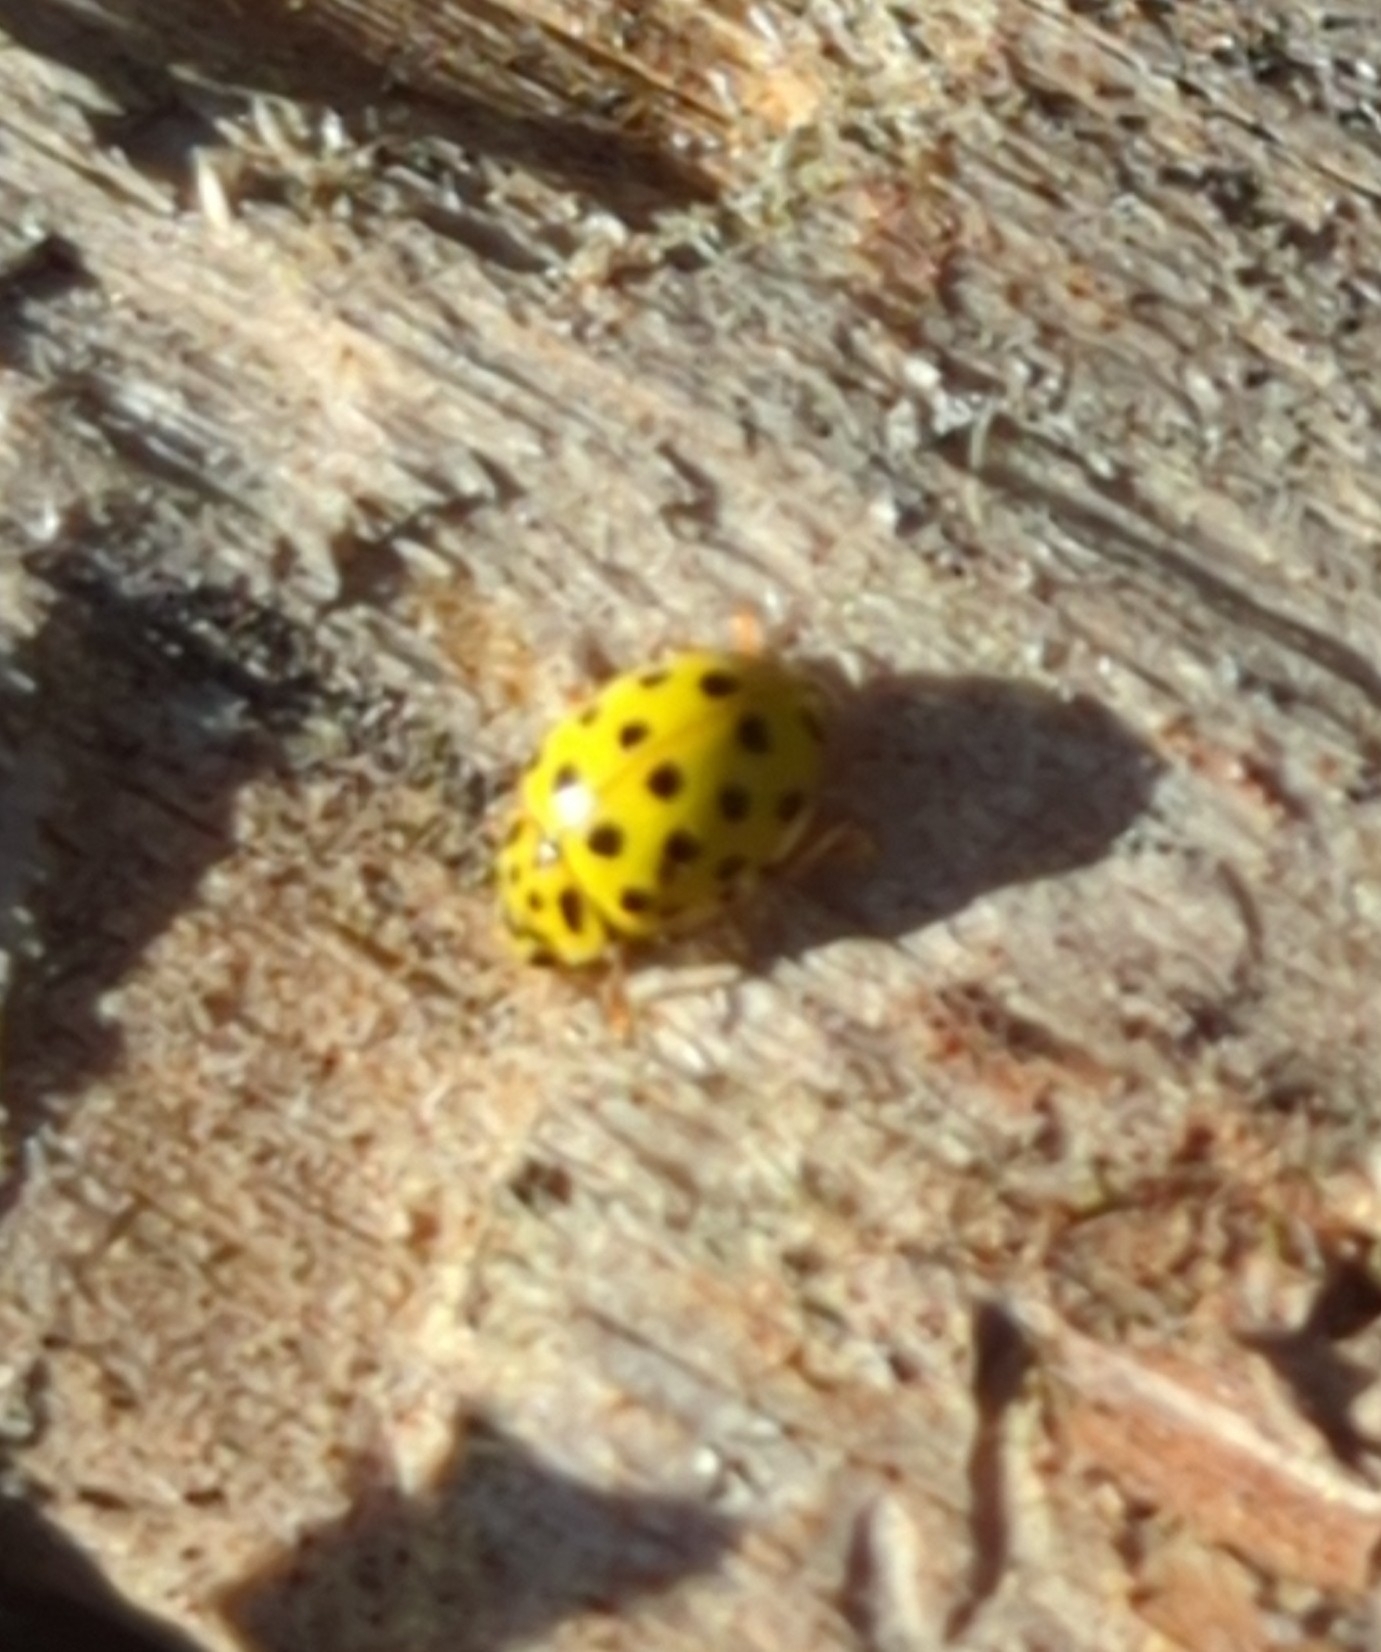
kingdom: Animalia
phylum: Arthropoda
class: Insecta
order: Coleoptera
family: Coccinellidae
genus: Psyllobora
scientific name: Psyllobora vigintiduopunctata
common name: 22-spot ladybird
